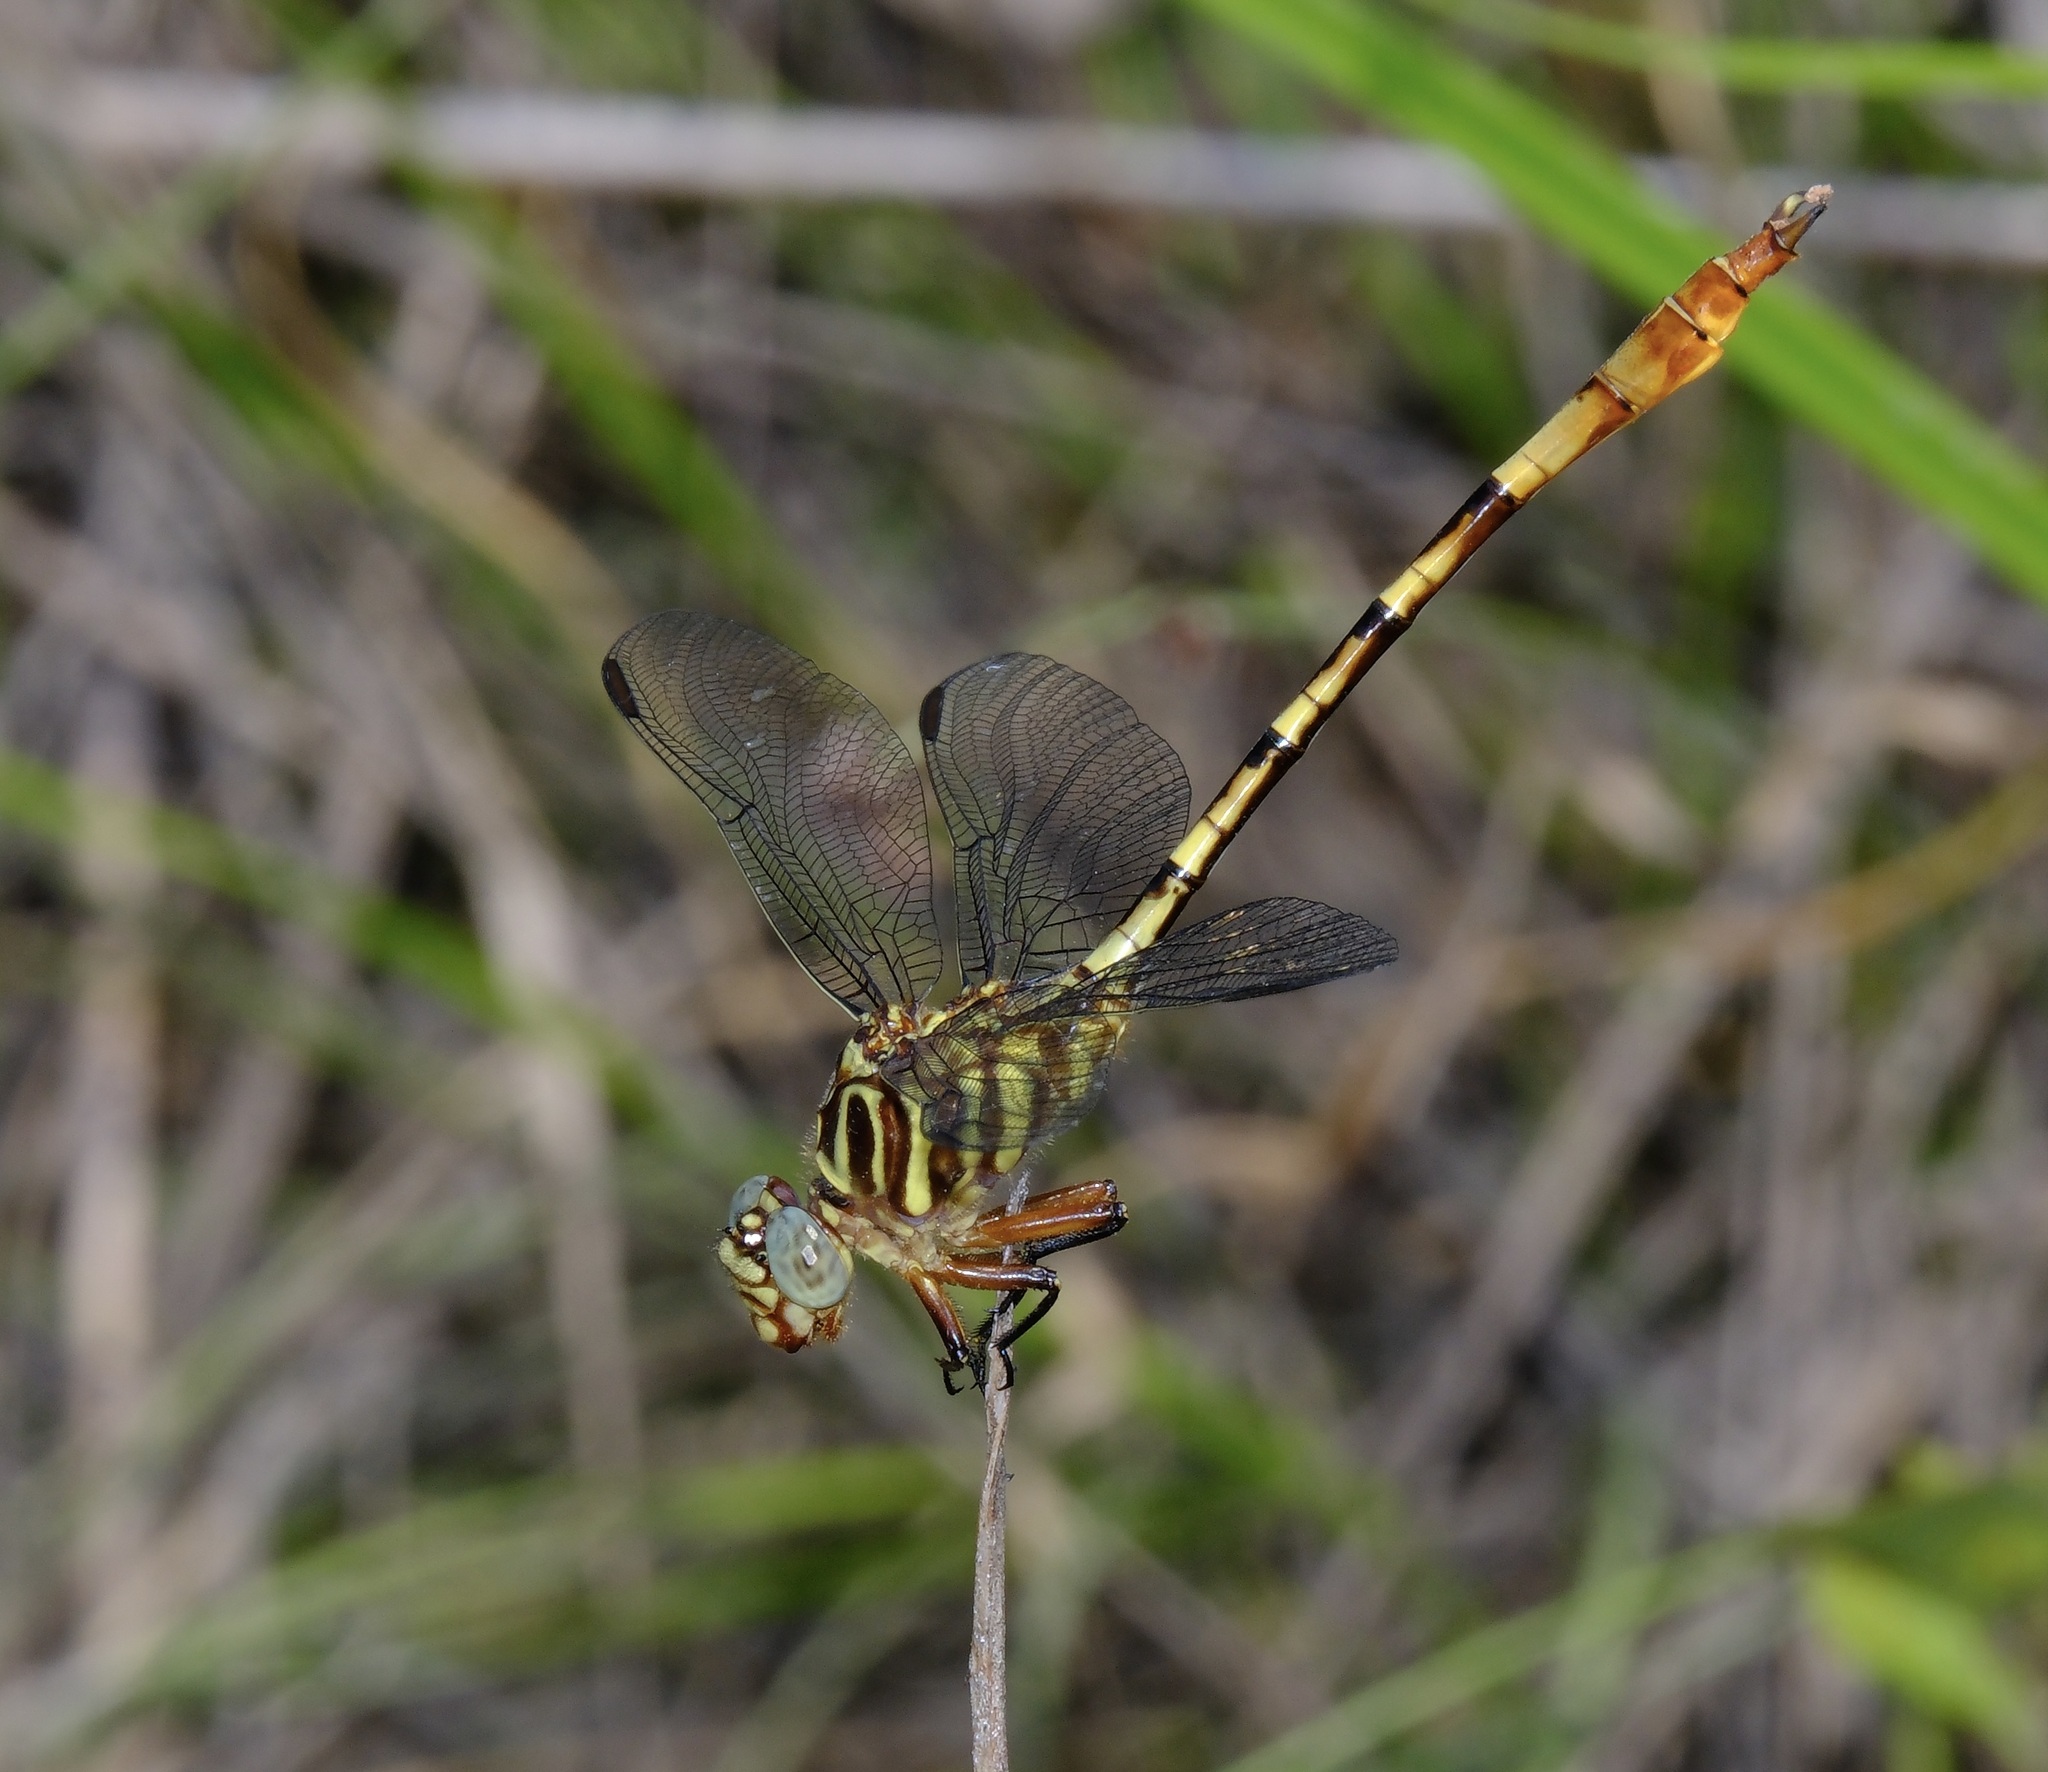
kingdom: Animalia
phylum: Arthropoda
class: Insecta
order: Odonata
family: Gomphidae
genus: Aphylla
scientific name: Aphylla angustifolia
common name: Broad-striped forceptail
